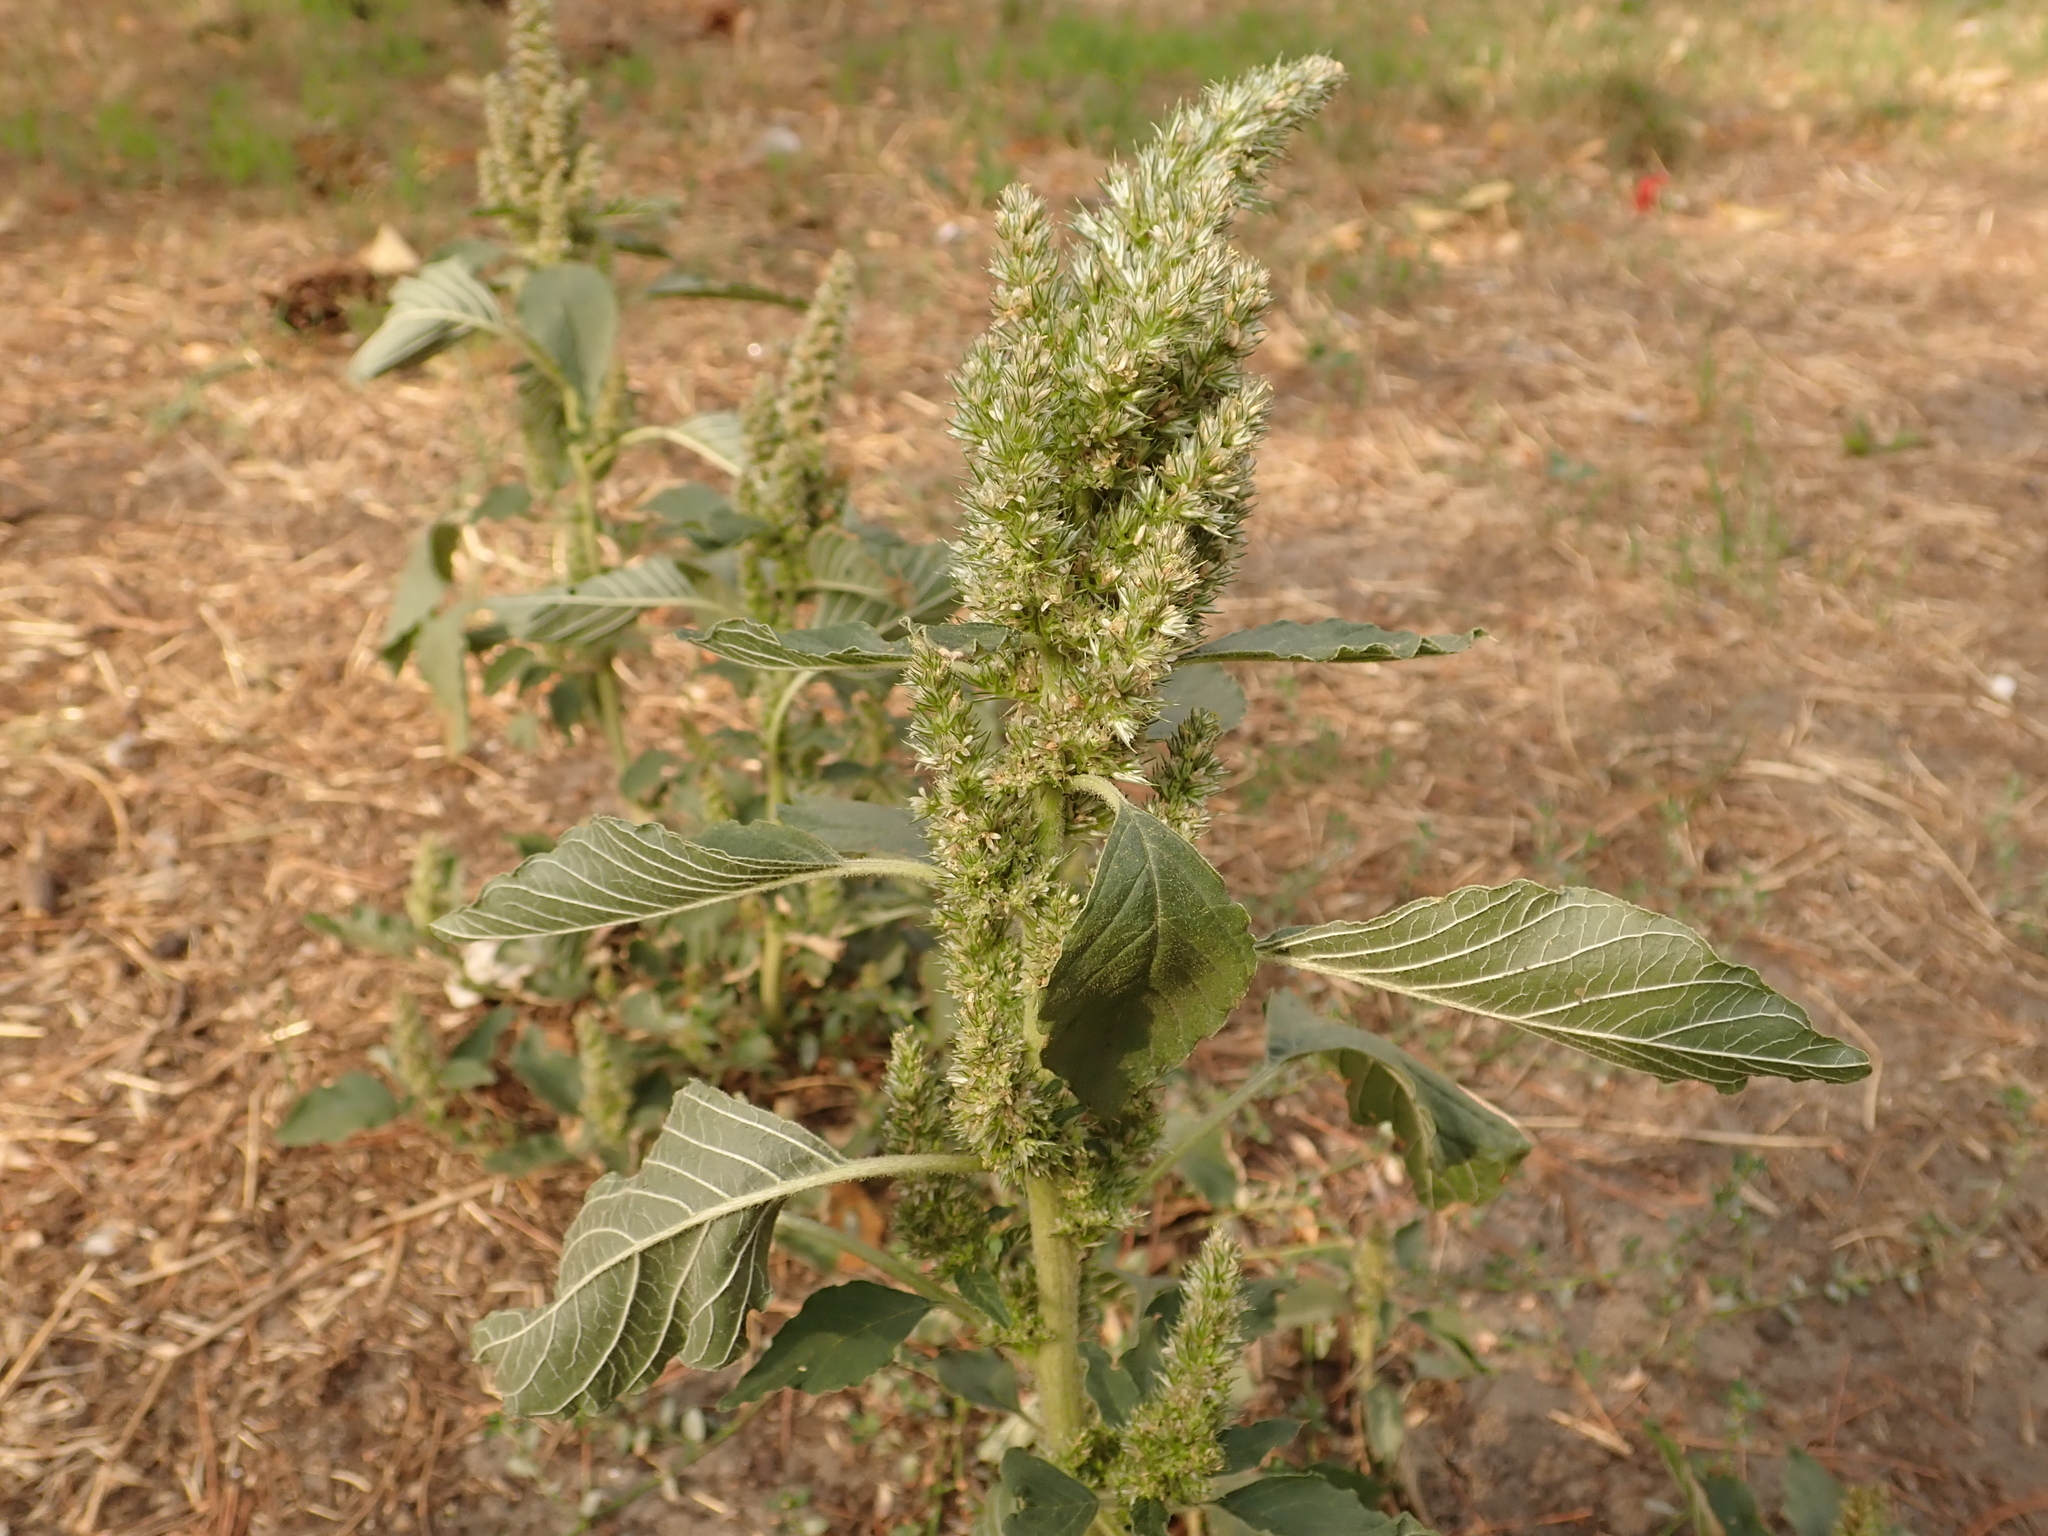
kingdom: Plantae
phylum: Tracheophyta
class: Magnoliopsida
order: Caryophyllales
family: Amaranthaceae
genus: Amaranthus
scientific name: Amaranthus retroflexus
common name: Redroot amaranth
